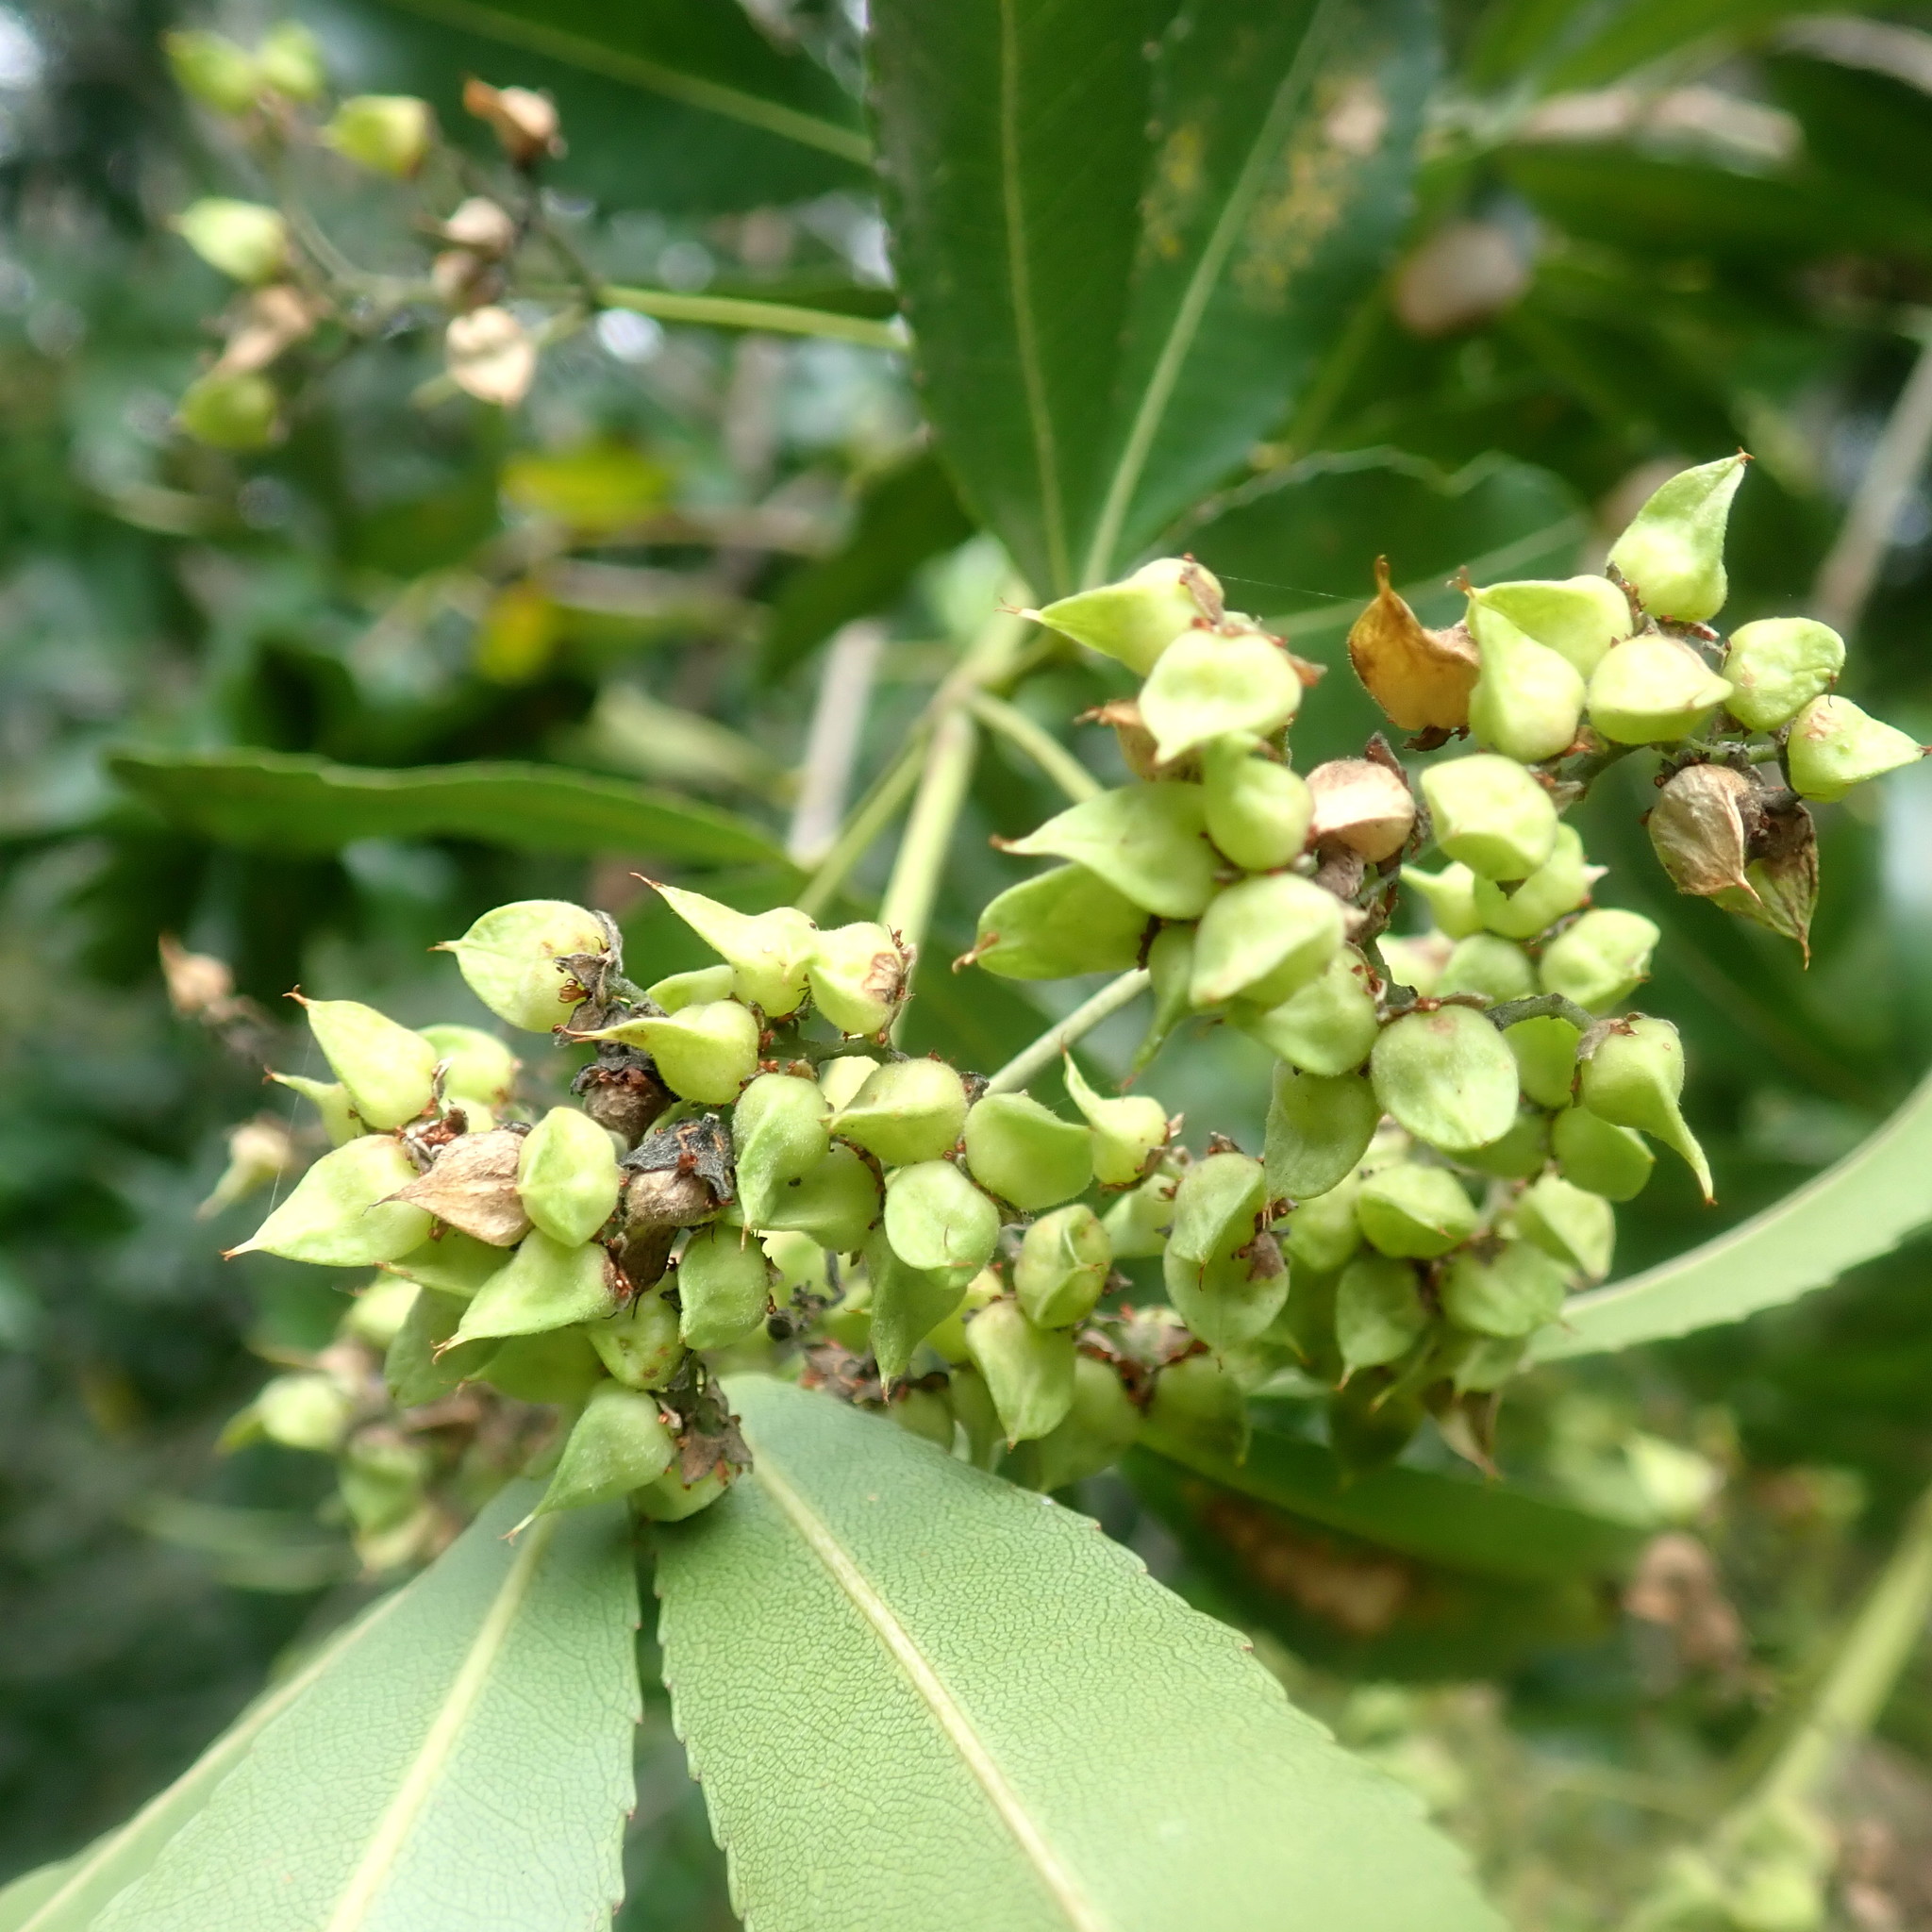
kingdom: Plantae
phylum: Tracheophyta
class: Magnoliopsida
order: Oxalidales
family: Cunoniaceae
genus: Platylophus
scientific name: Platylophus trifoliatus
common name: White alder
